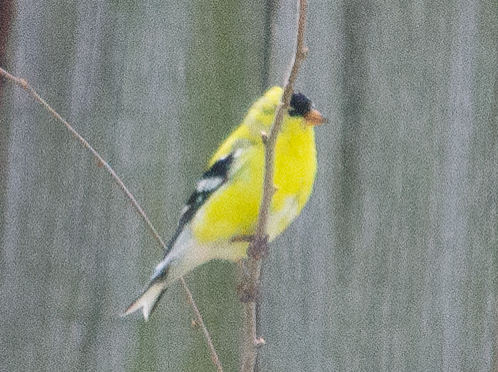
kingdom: Animalia
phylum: Chordata
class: Aves
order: Passeriformes
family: Fringillidae
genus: Spinus
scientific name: Spinus tristis
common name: American goldfinch
